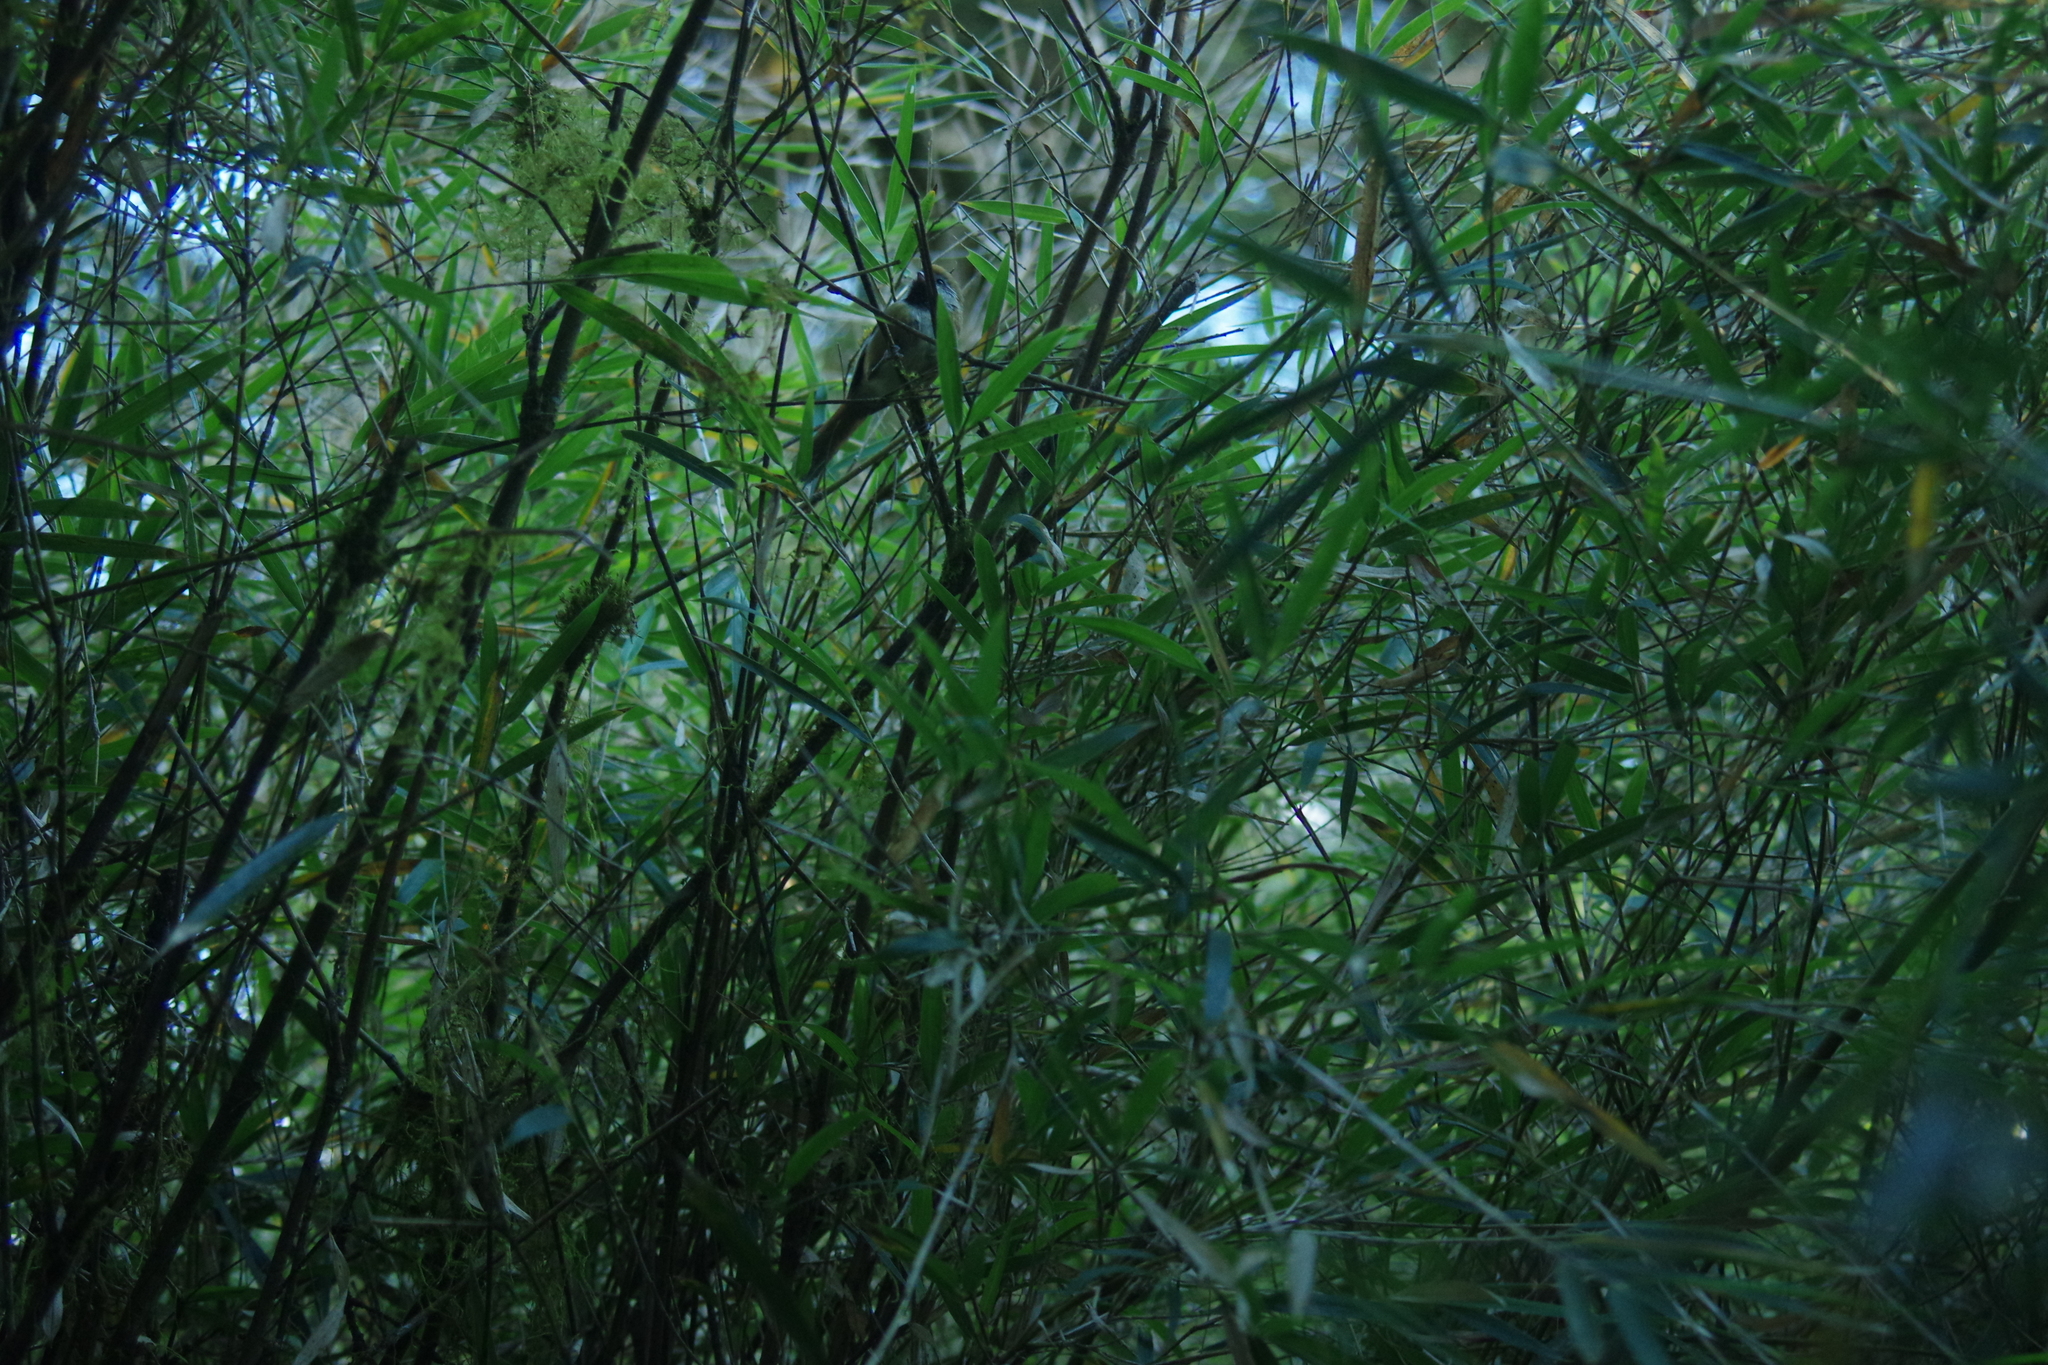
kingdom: Animalia
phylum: Chordata
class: Aves
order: Passeriformes
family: Sylviidae
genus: Suthora
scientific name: Suthora verreauxi
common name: Golden parrotbill
